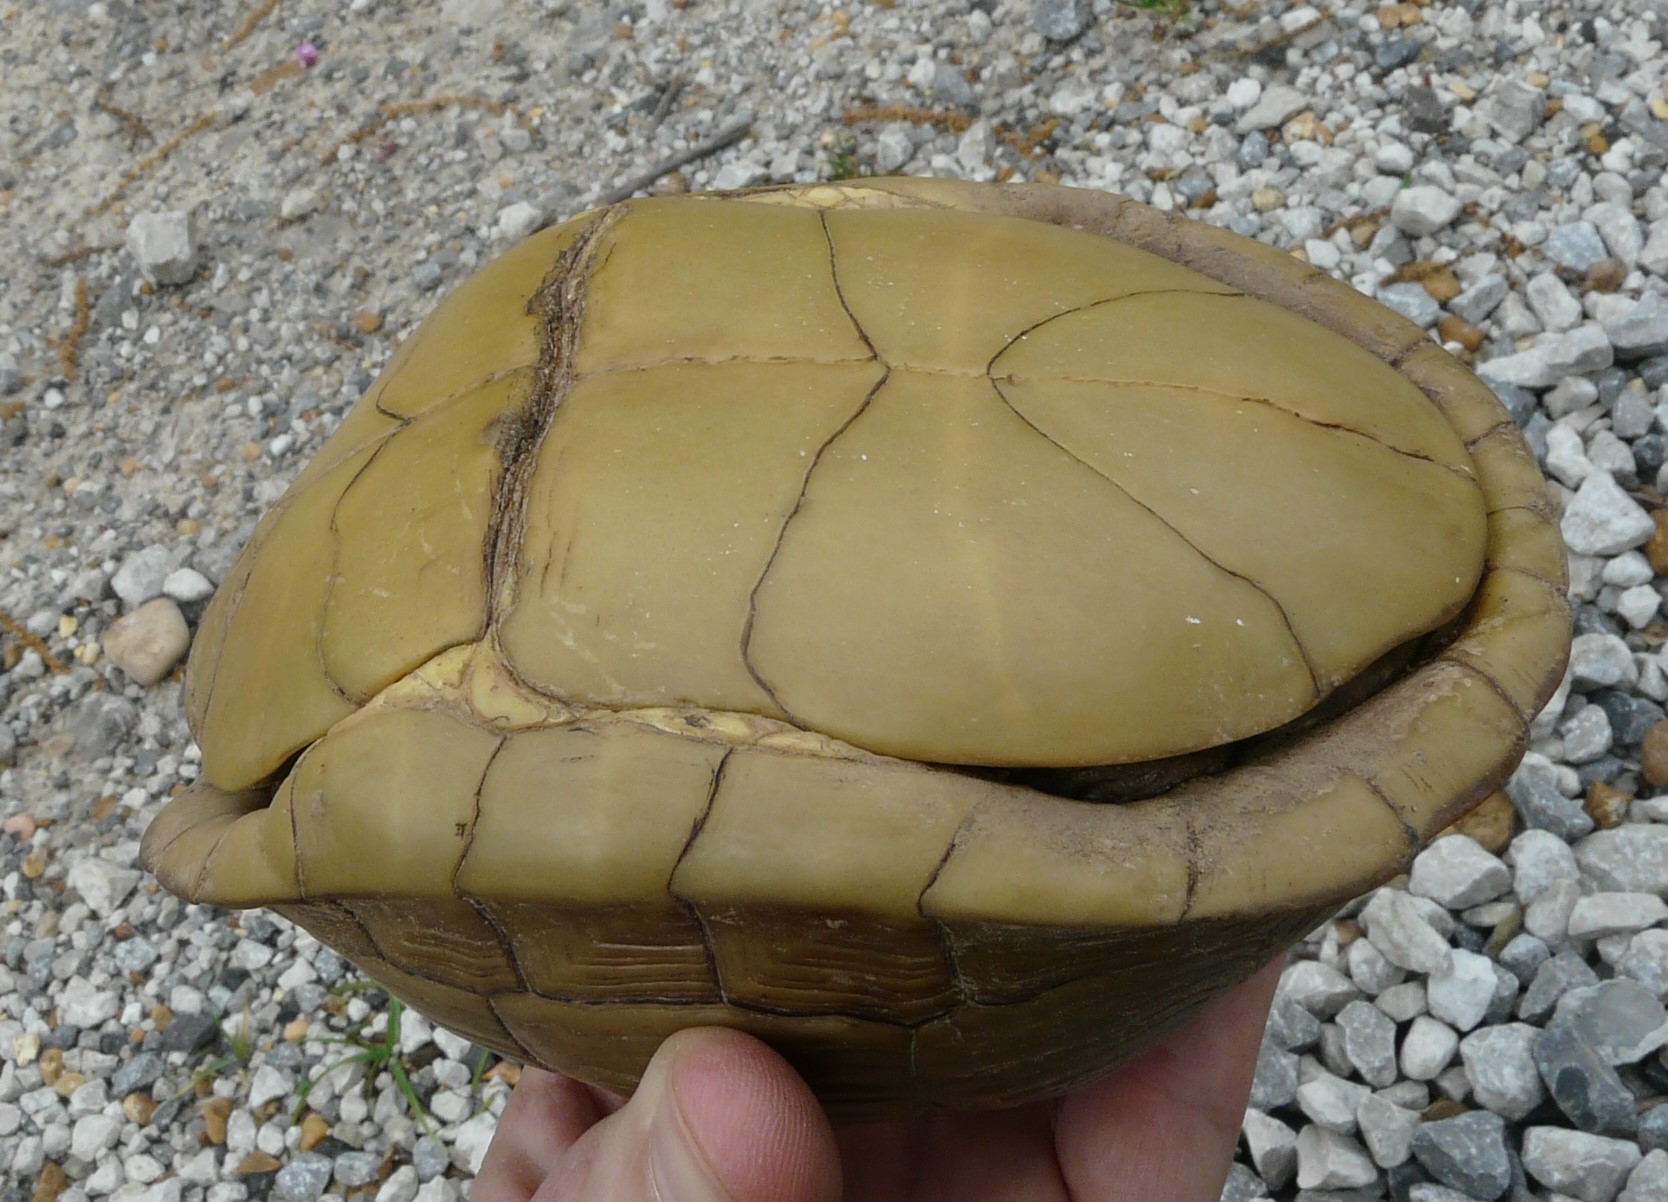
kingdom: Animalia
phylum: Chordata
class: Testudines
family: Emydidae
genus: Terrapene
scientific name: Terrapene carolina
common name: Common box turtle
